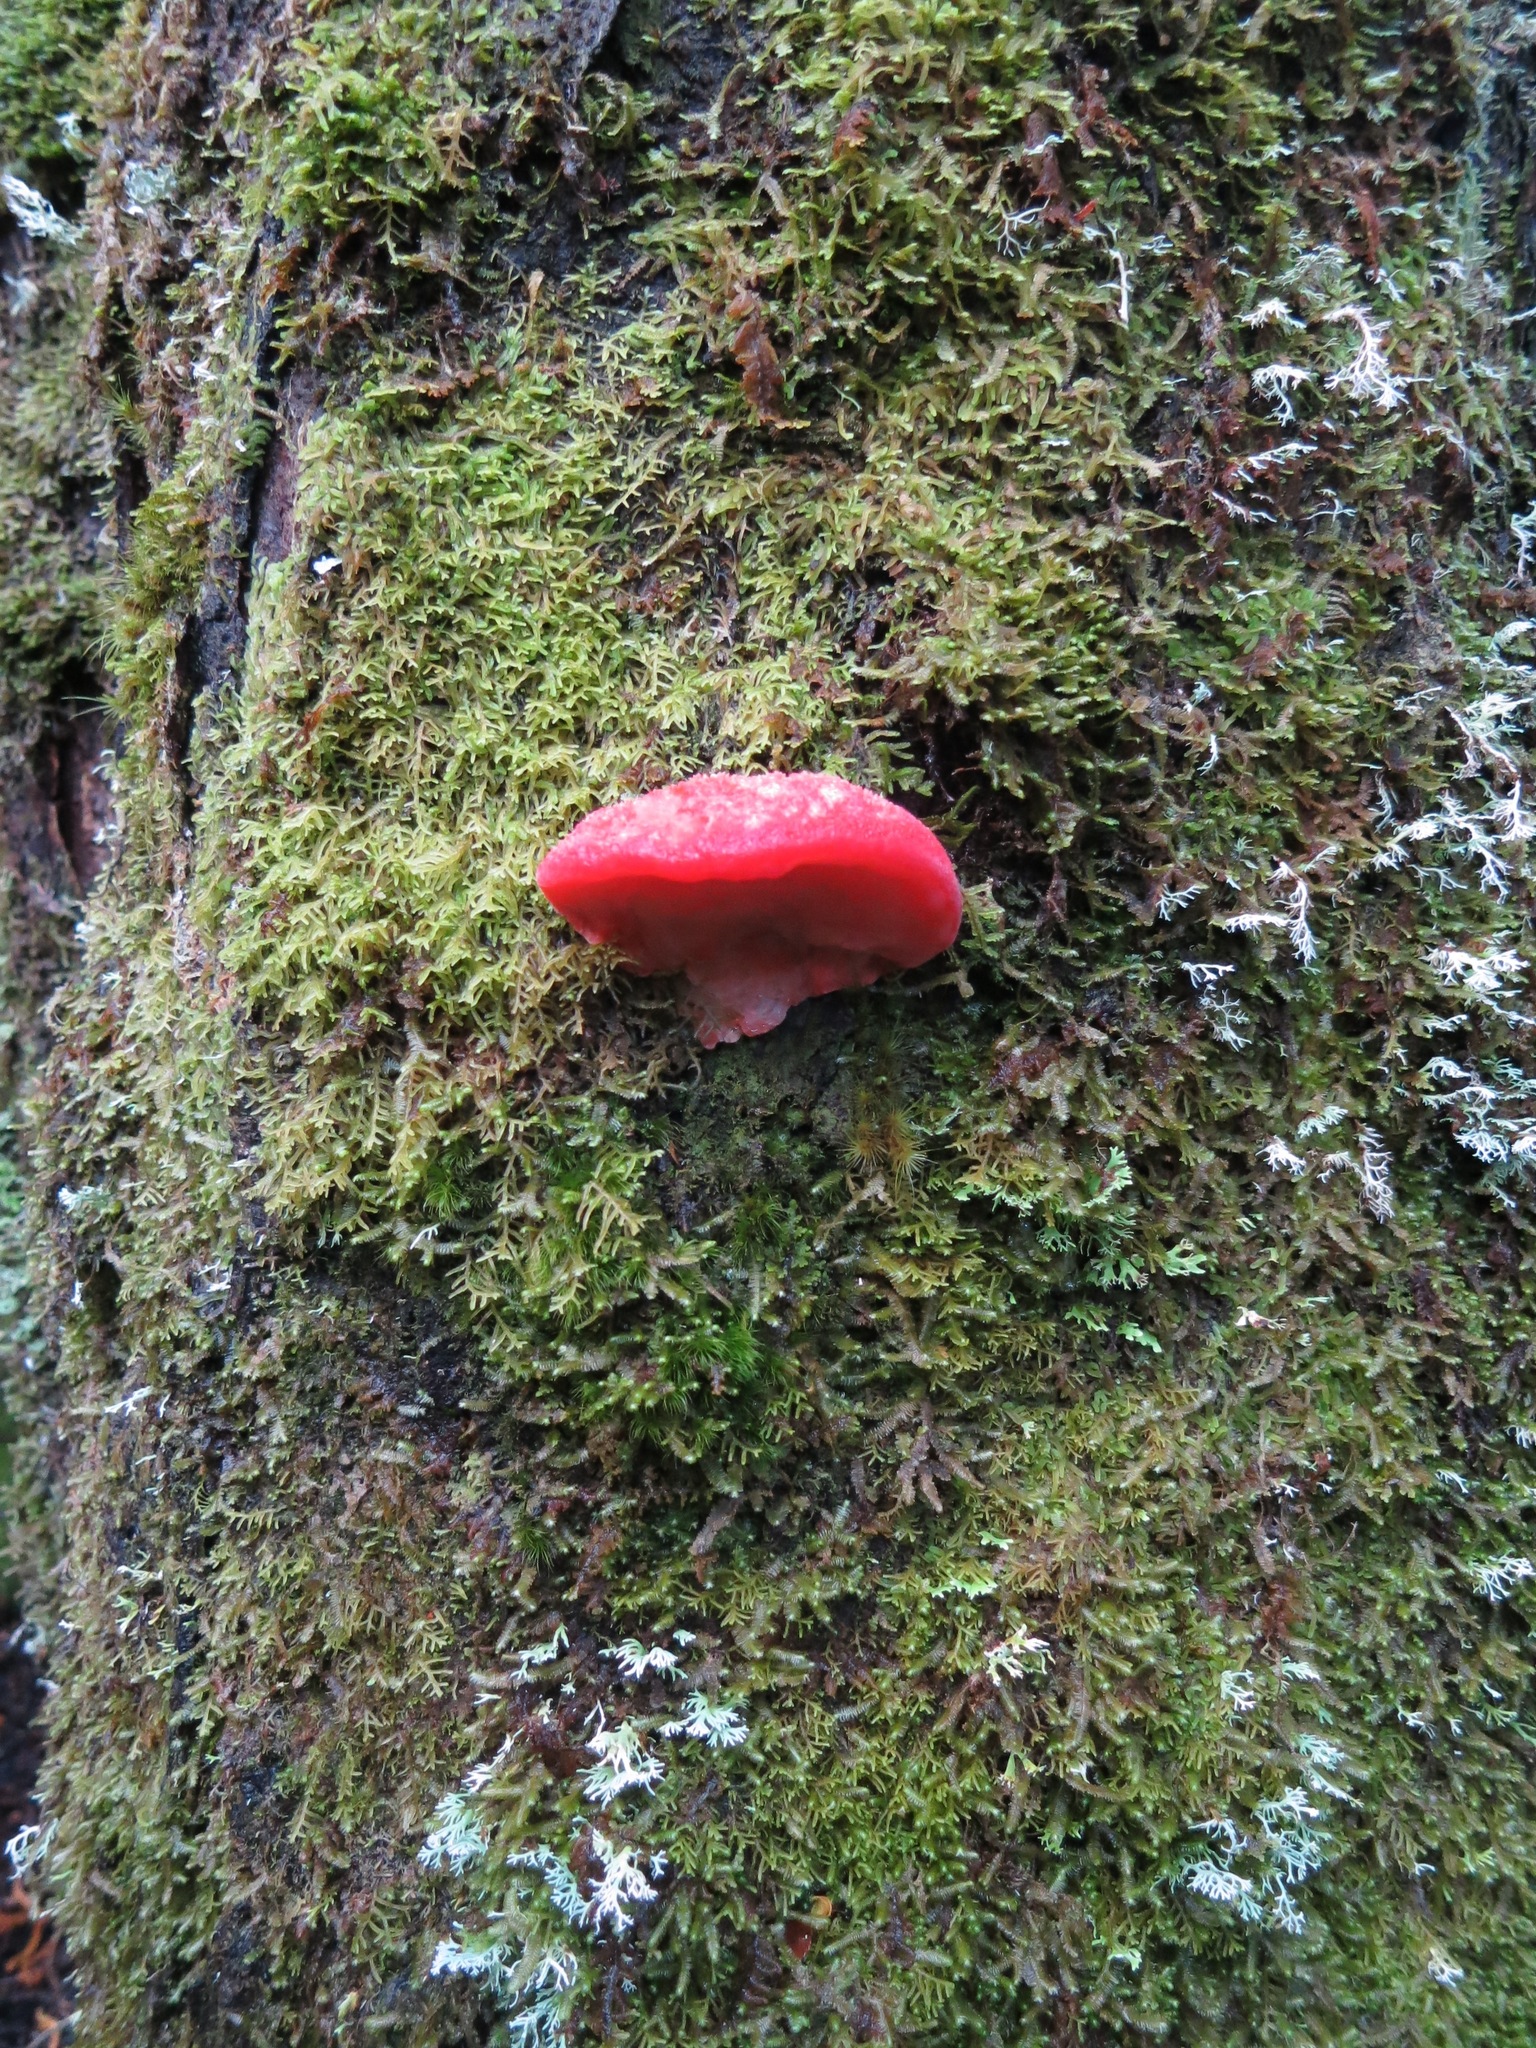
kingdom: Fungi
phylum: Basidiomycota
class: Agaricomycetes
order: Polyporales
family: Incrustoporiaceae
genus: Tyromyces
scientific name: Tyromyces pulcherrimus
